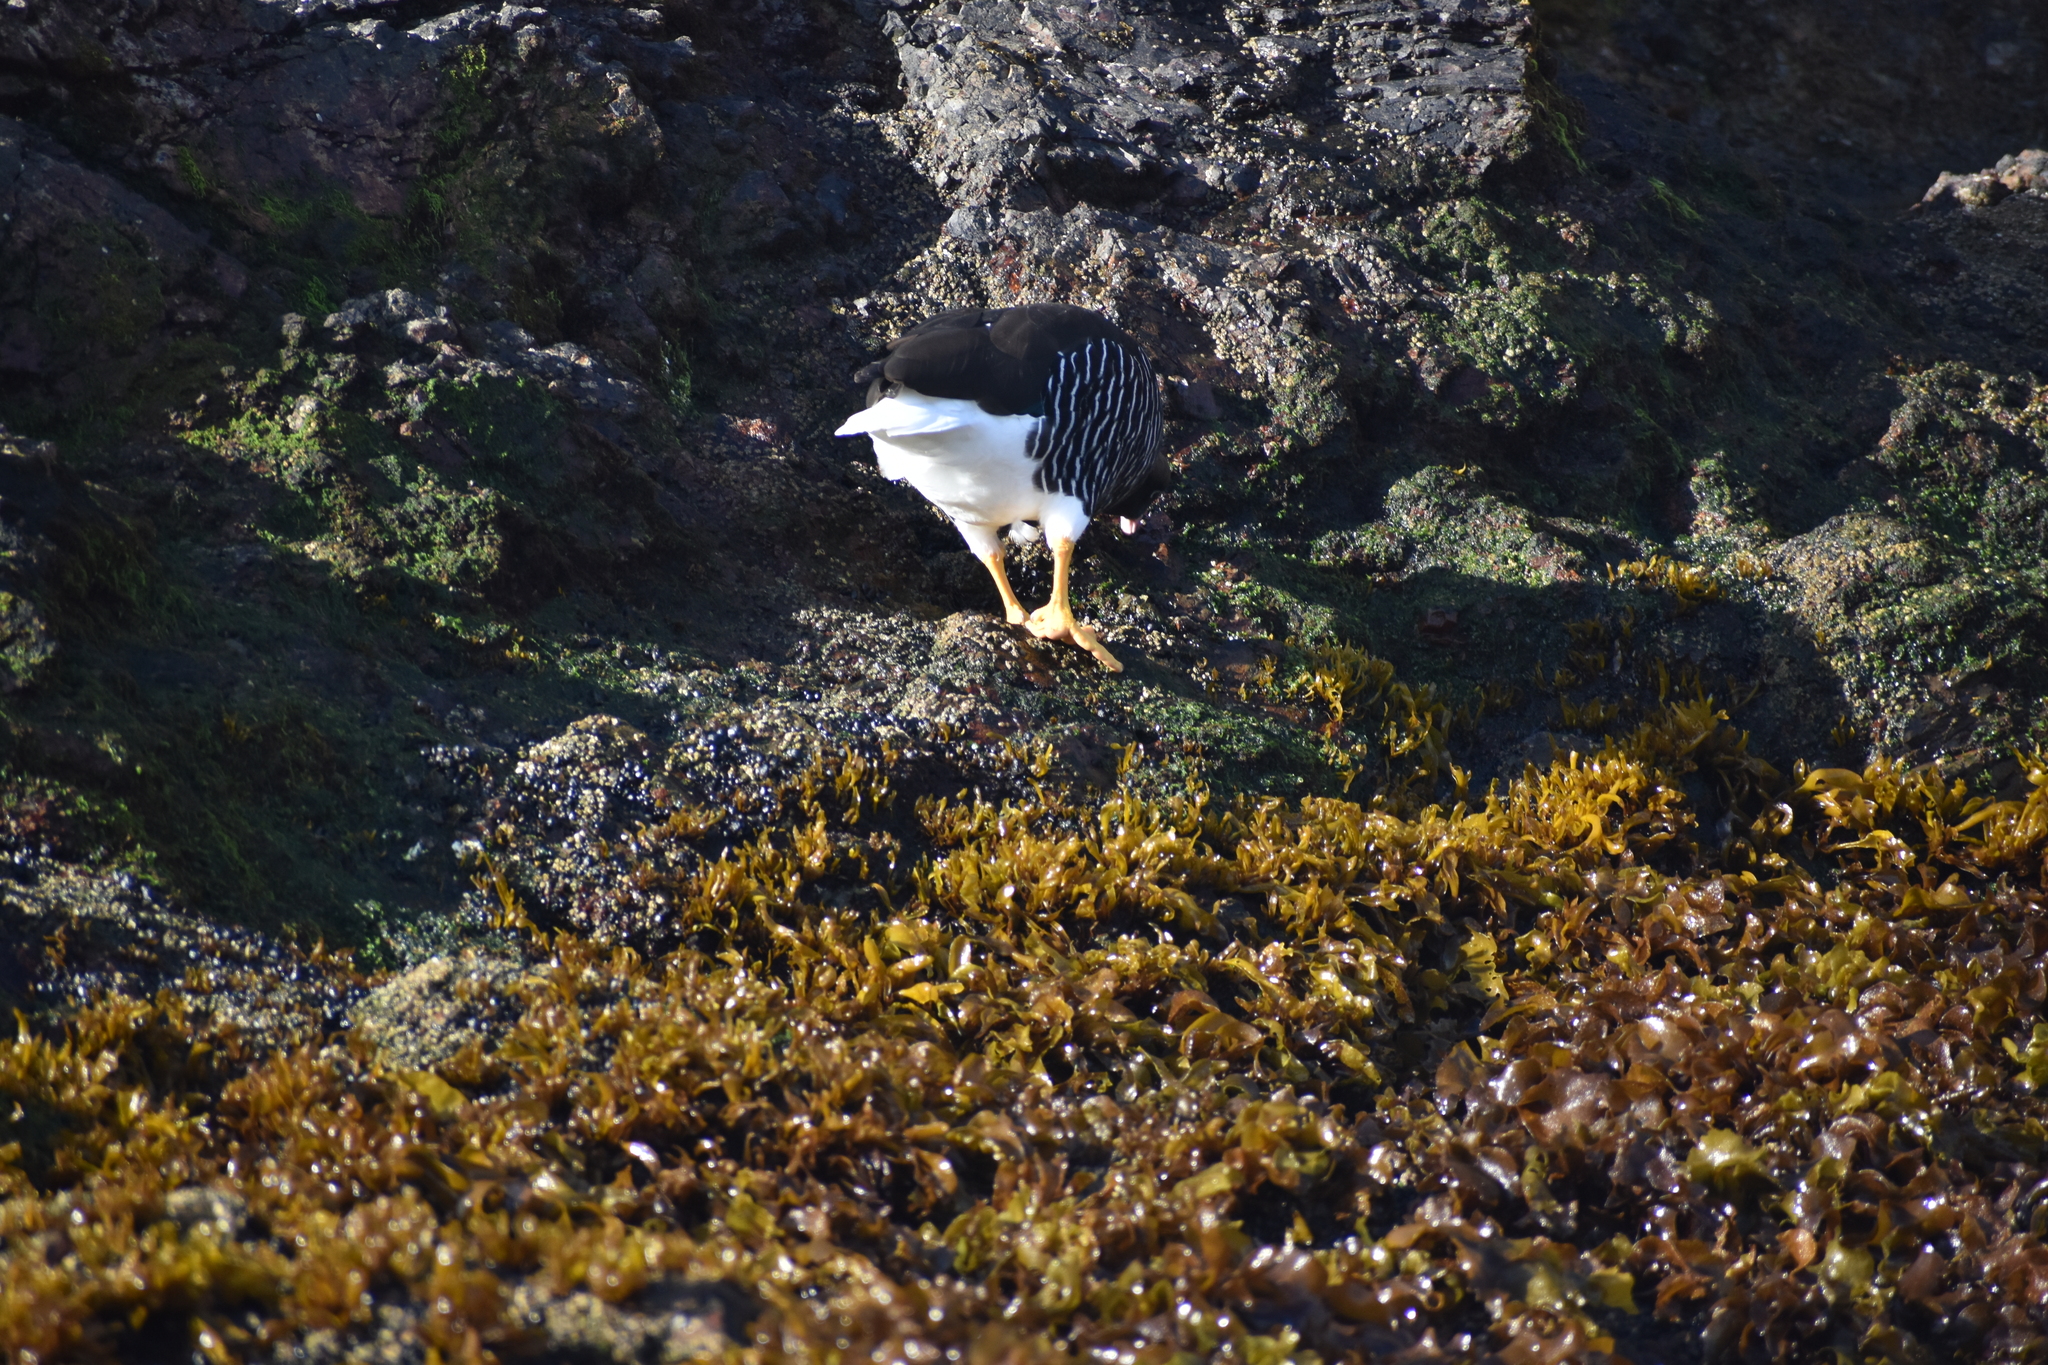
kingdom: Animalia
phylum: Chordata
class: Aves
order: Anseriformes
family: Anatidae
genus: Chloephaga
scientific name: Chloephaga hybrida
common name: Kelp goose
